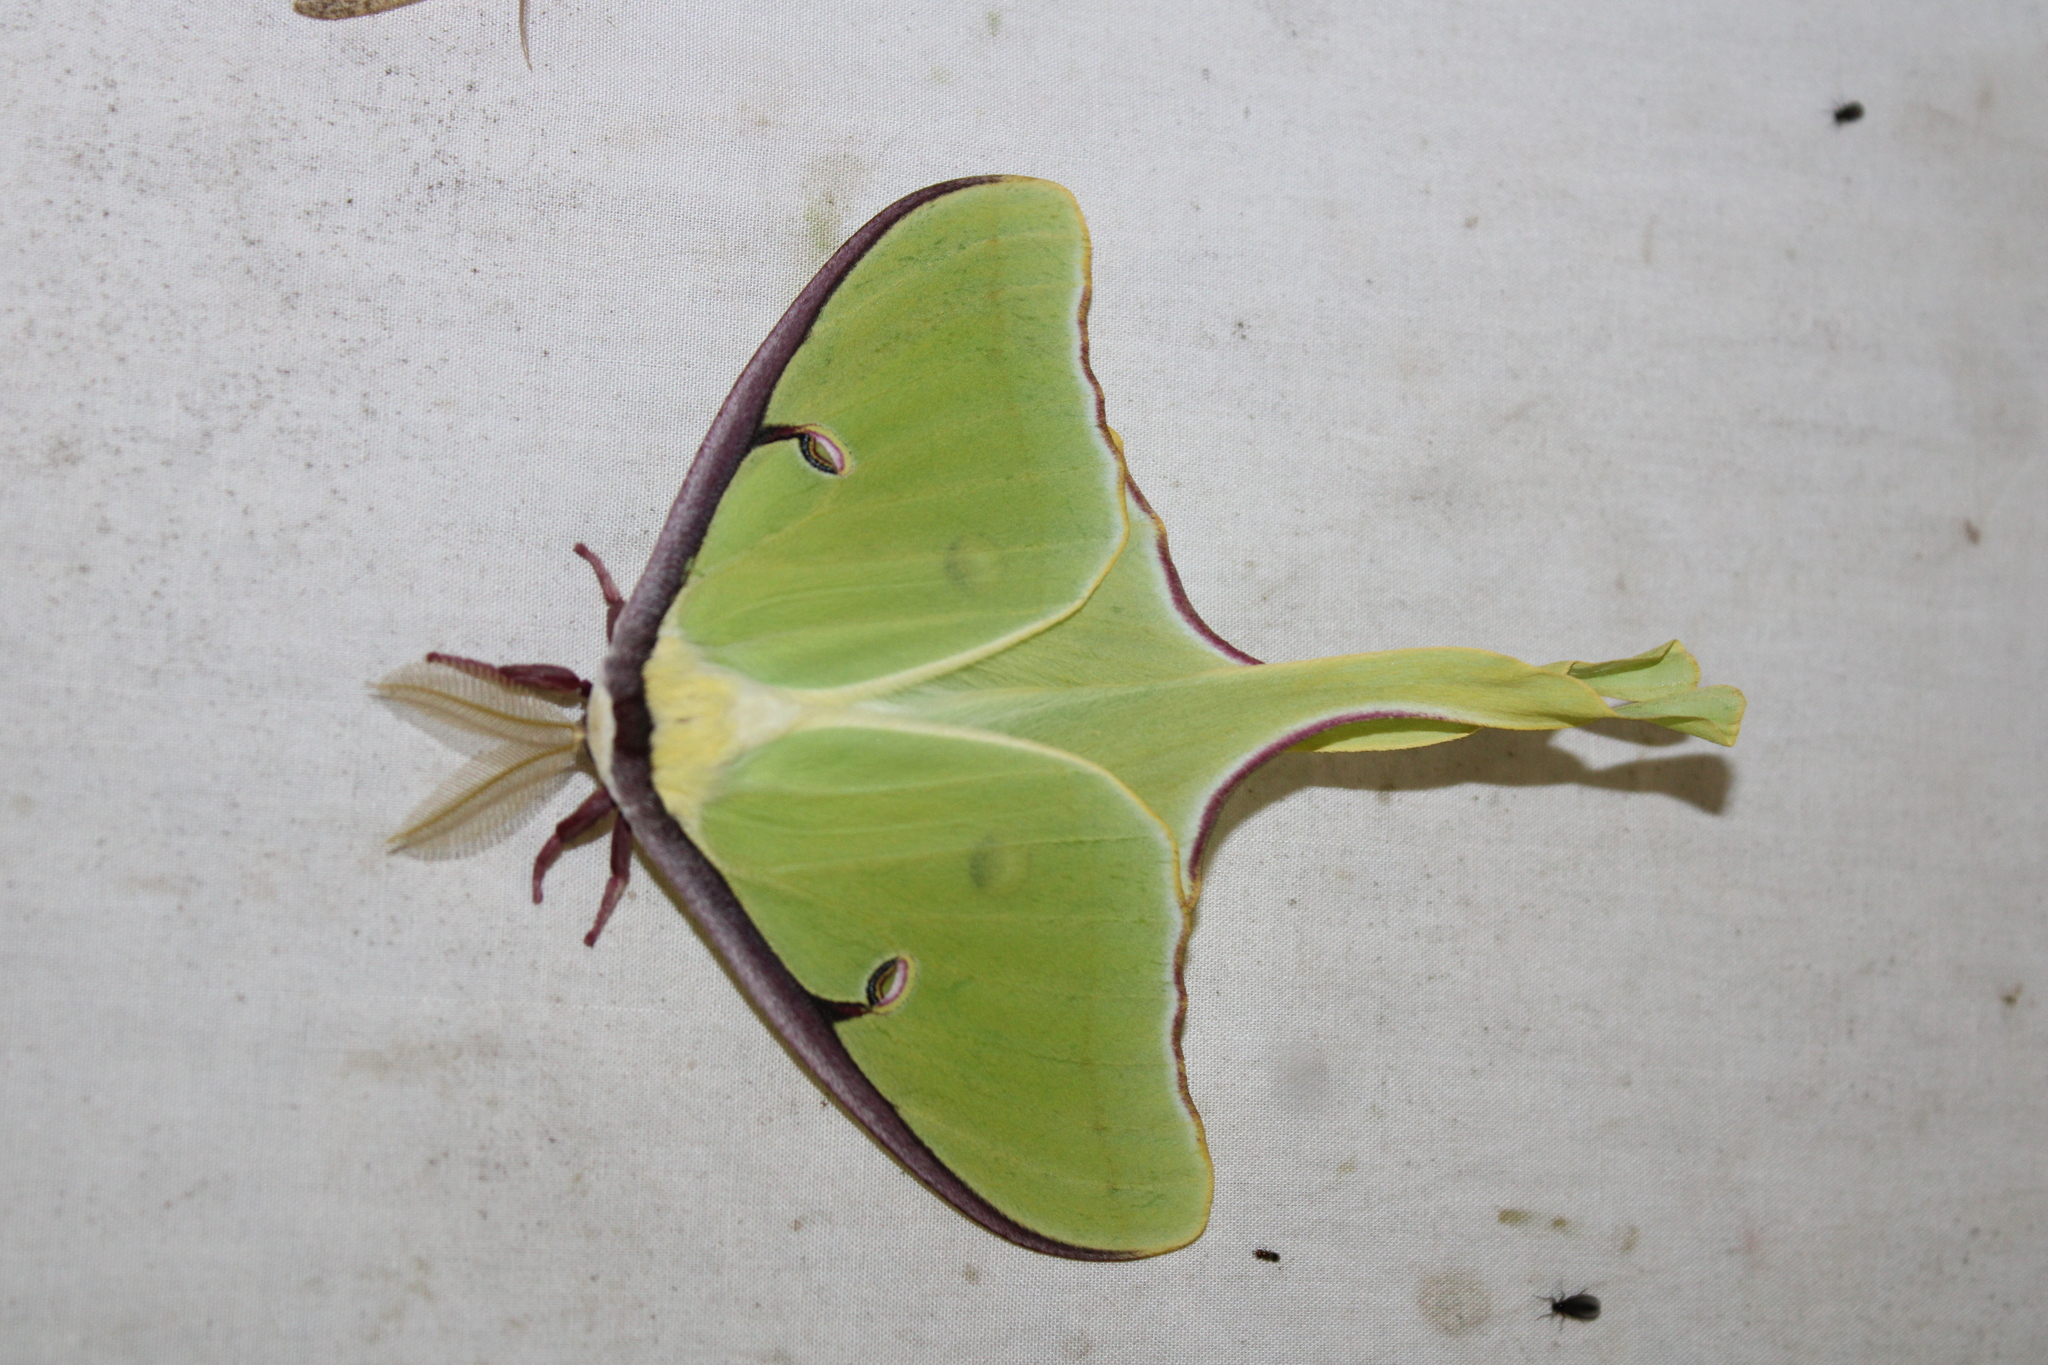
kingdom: Animalia
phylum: Arthropoda
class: Insecta
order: Lepidoptera
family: Saturniidae
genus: Actias
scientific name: Actias luna
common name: Luna moth
